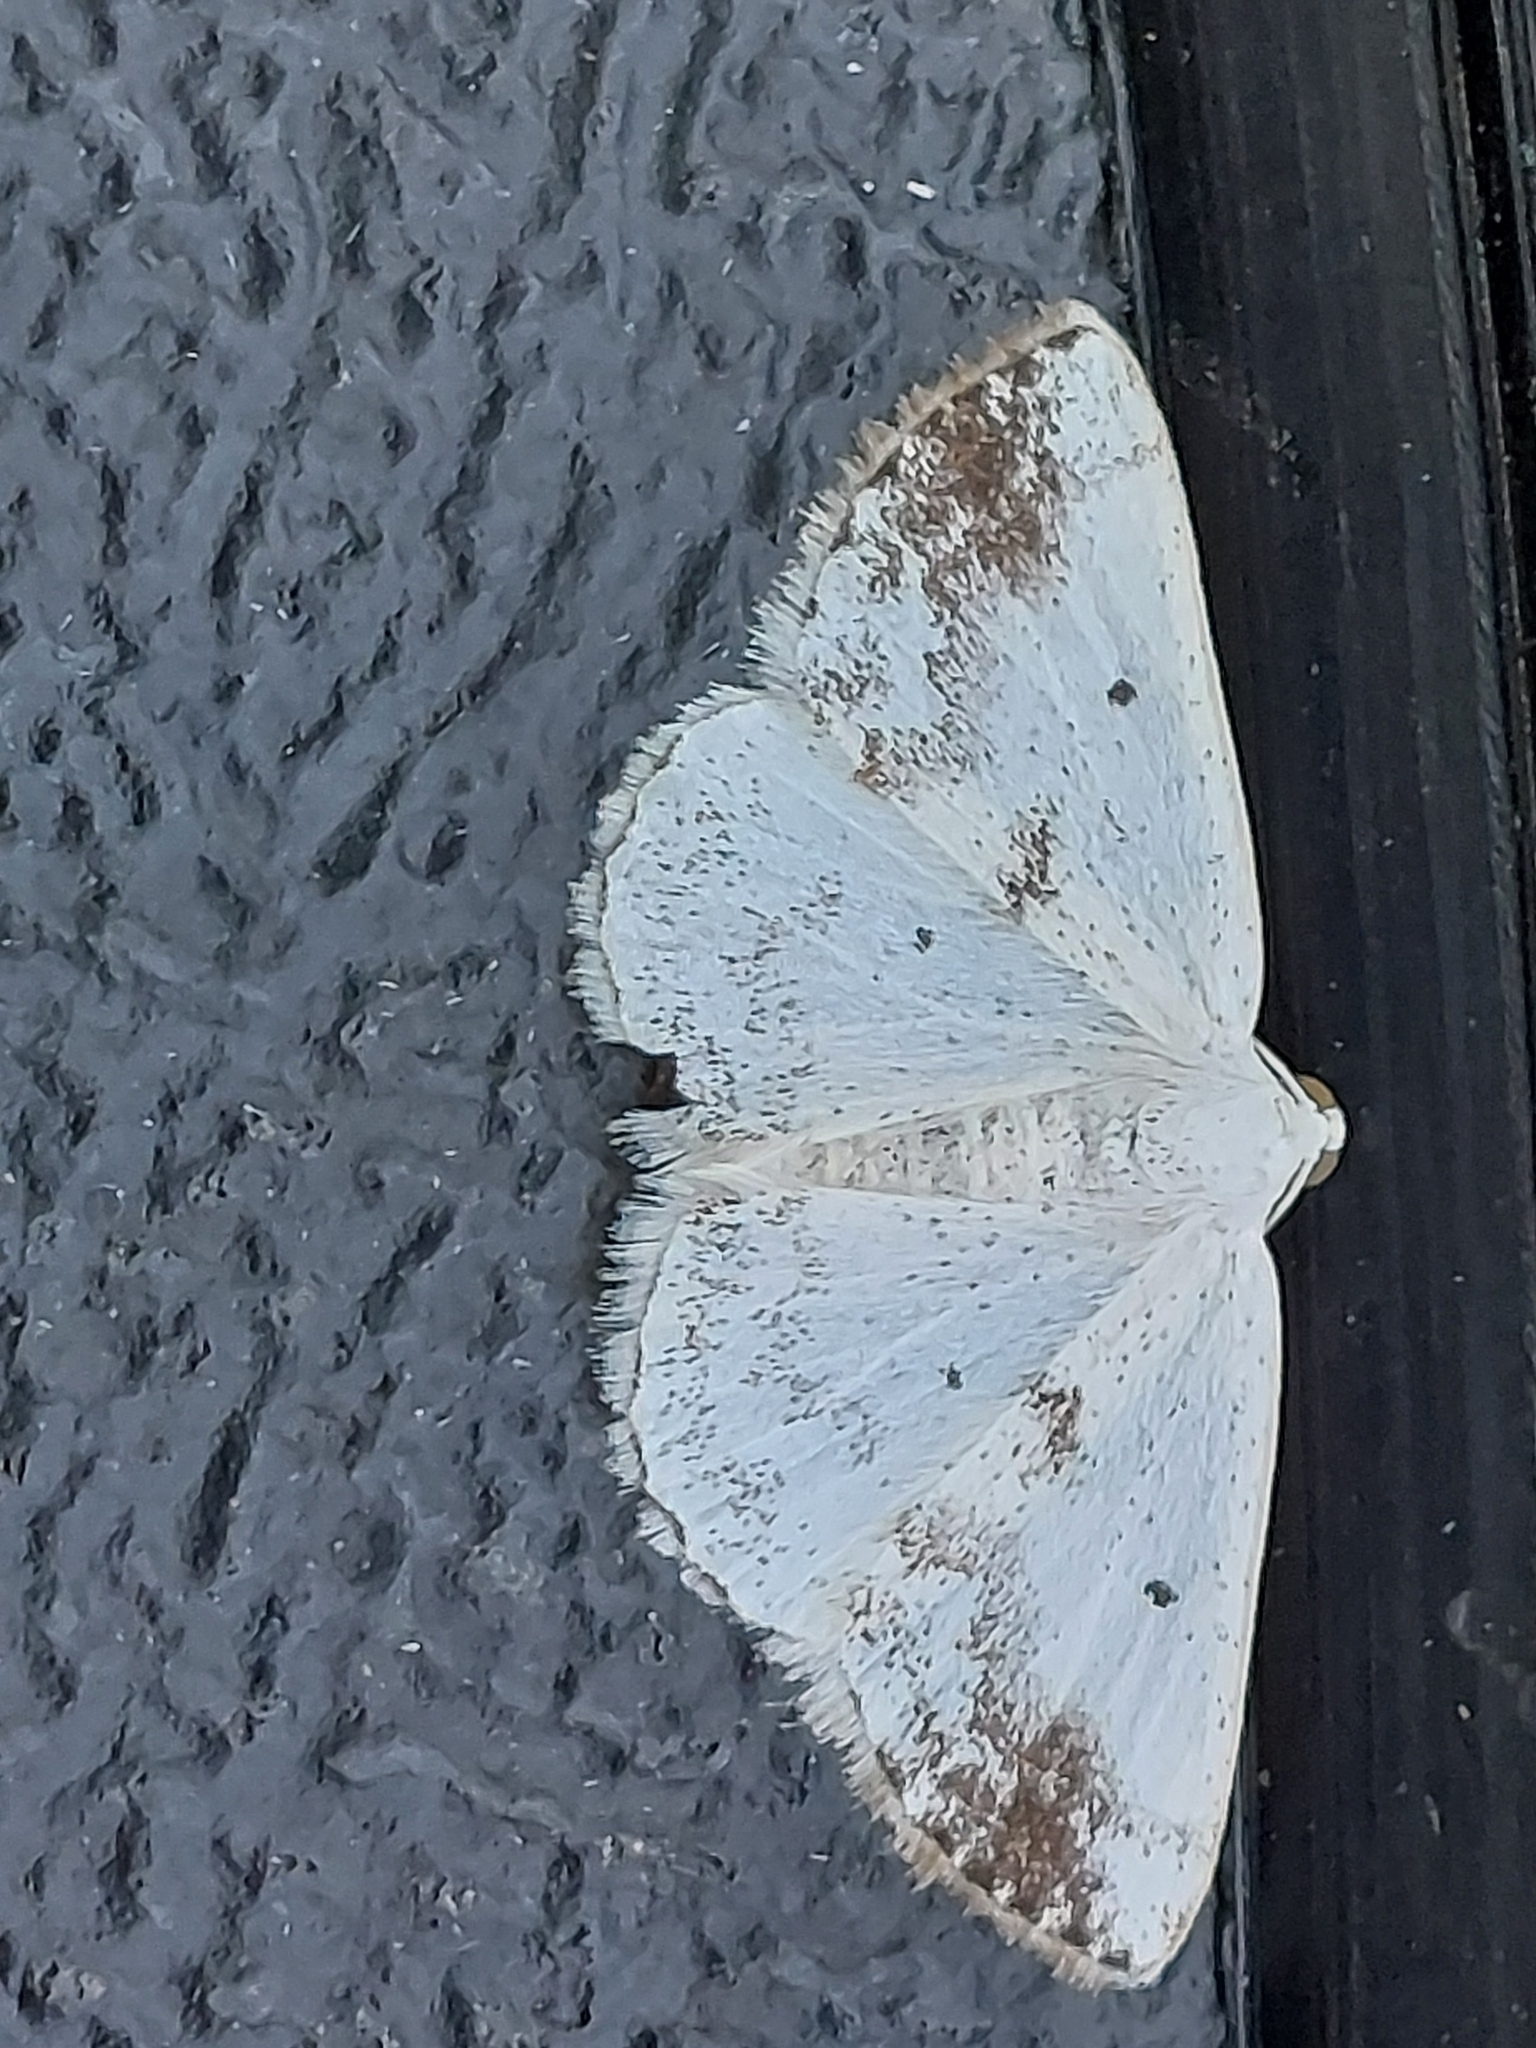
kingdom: Animalia
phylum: Arthropoda
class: Insecta
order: Lepidoptera
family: Geometridae
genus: Lomographa
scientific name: Lomographa temerata
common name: Clouded silver
